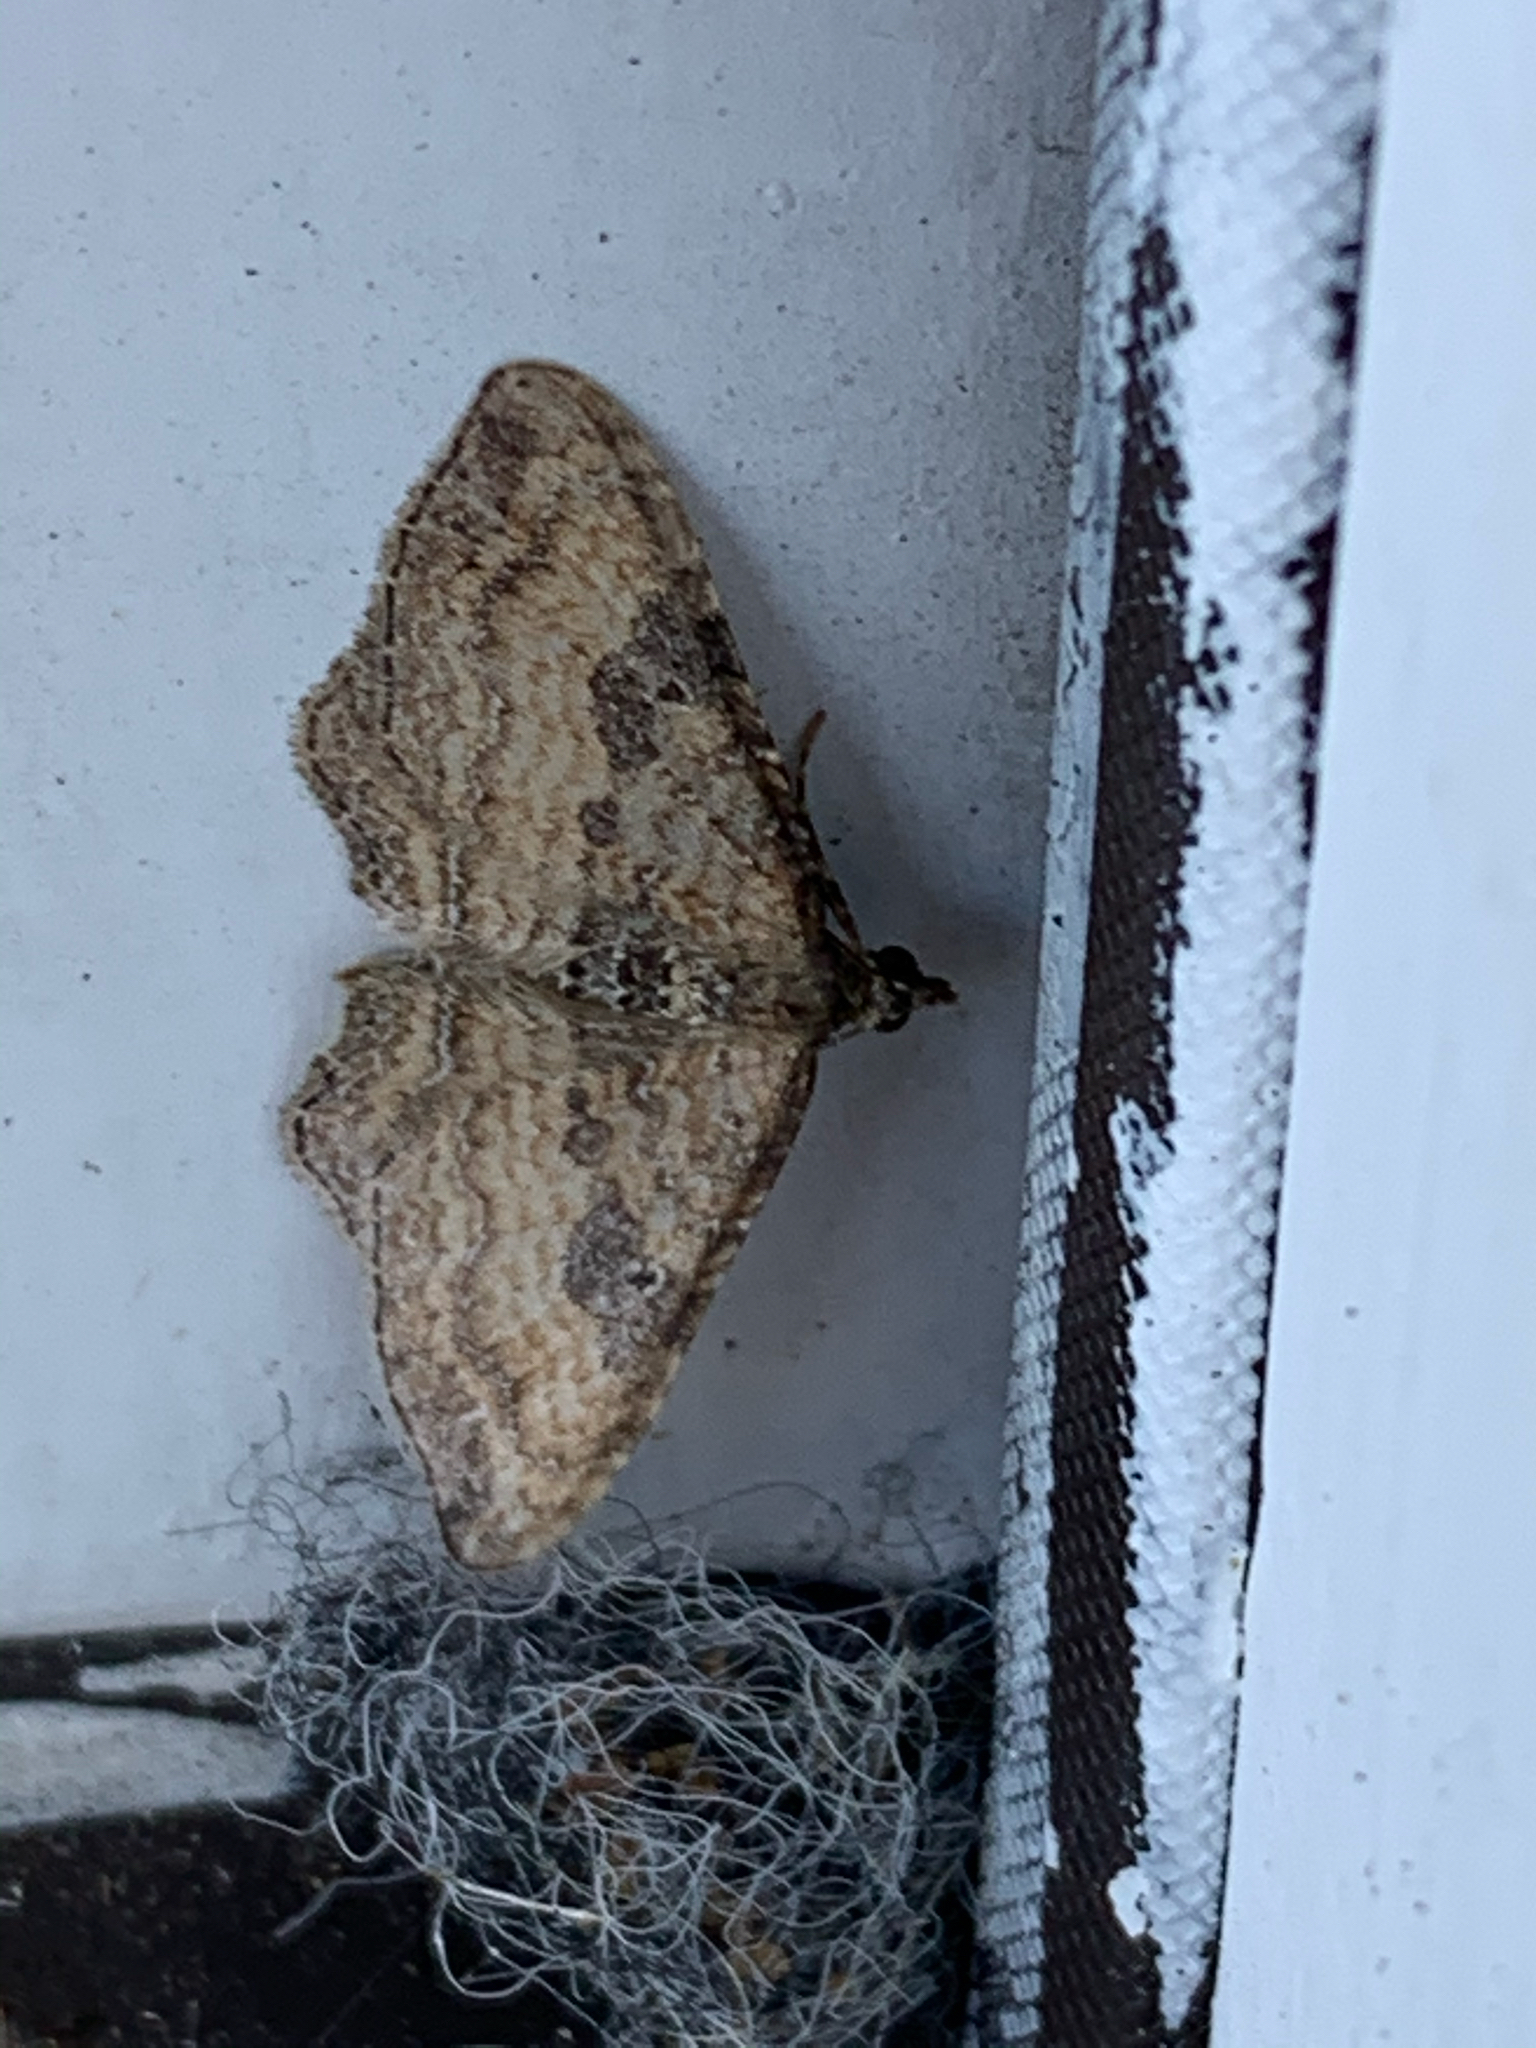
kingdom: Animalia
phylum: Arthropoda
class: Insecta
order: Lepidoptera
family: Geometridae
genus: Orthonama
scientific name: Orthonama obstipata
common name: The gem
